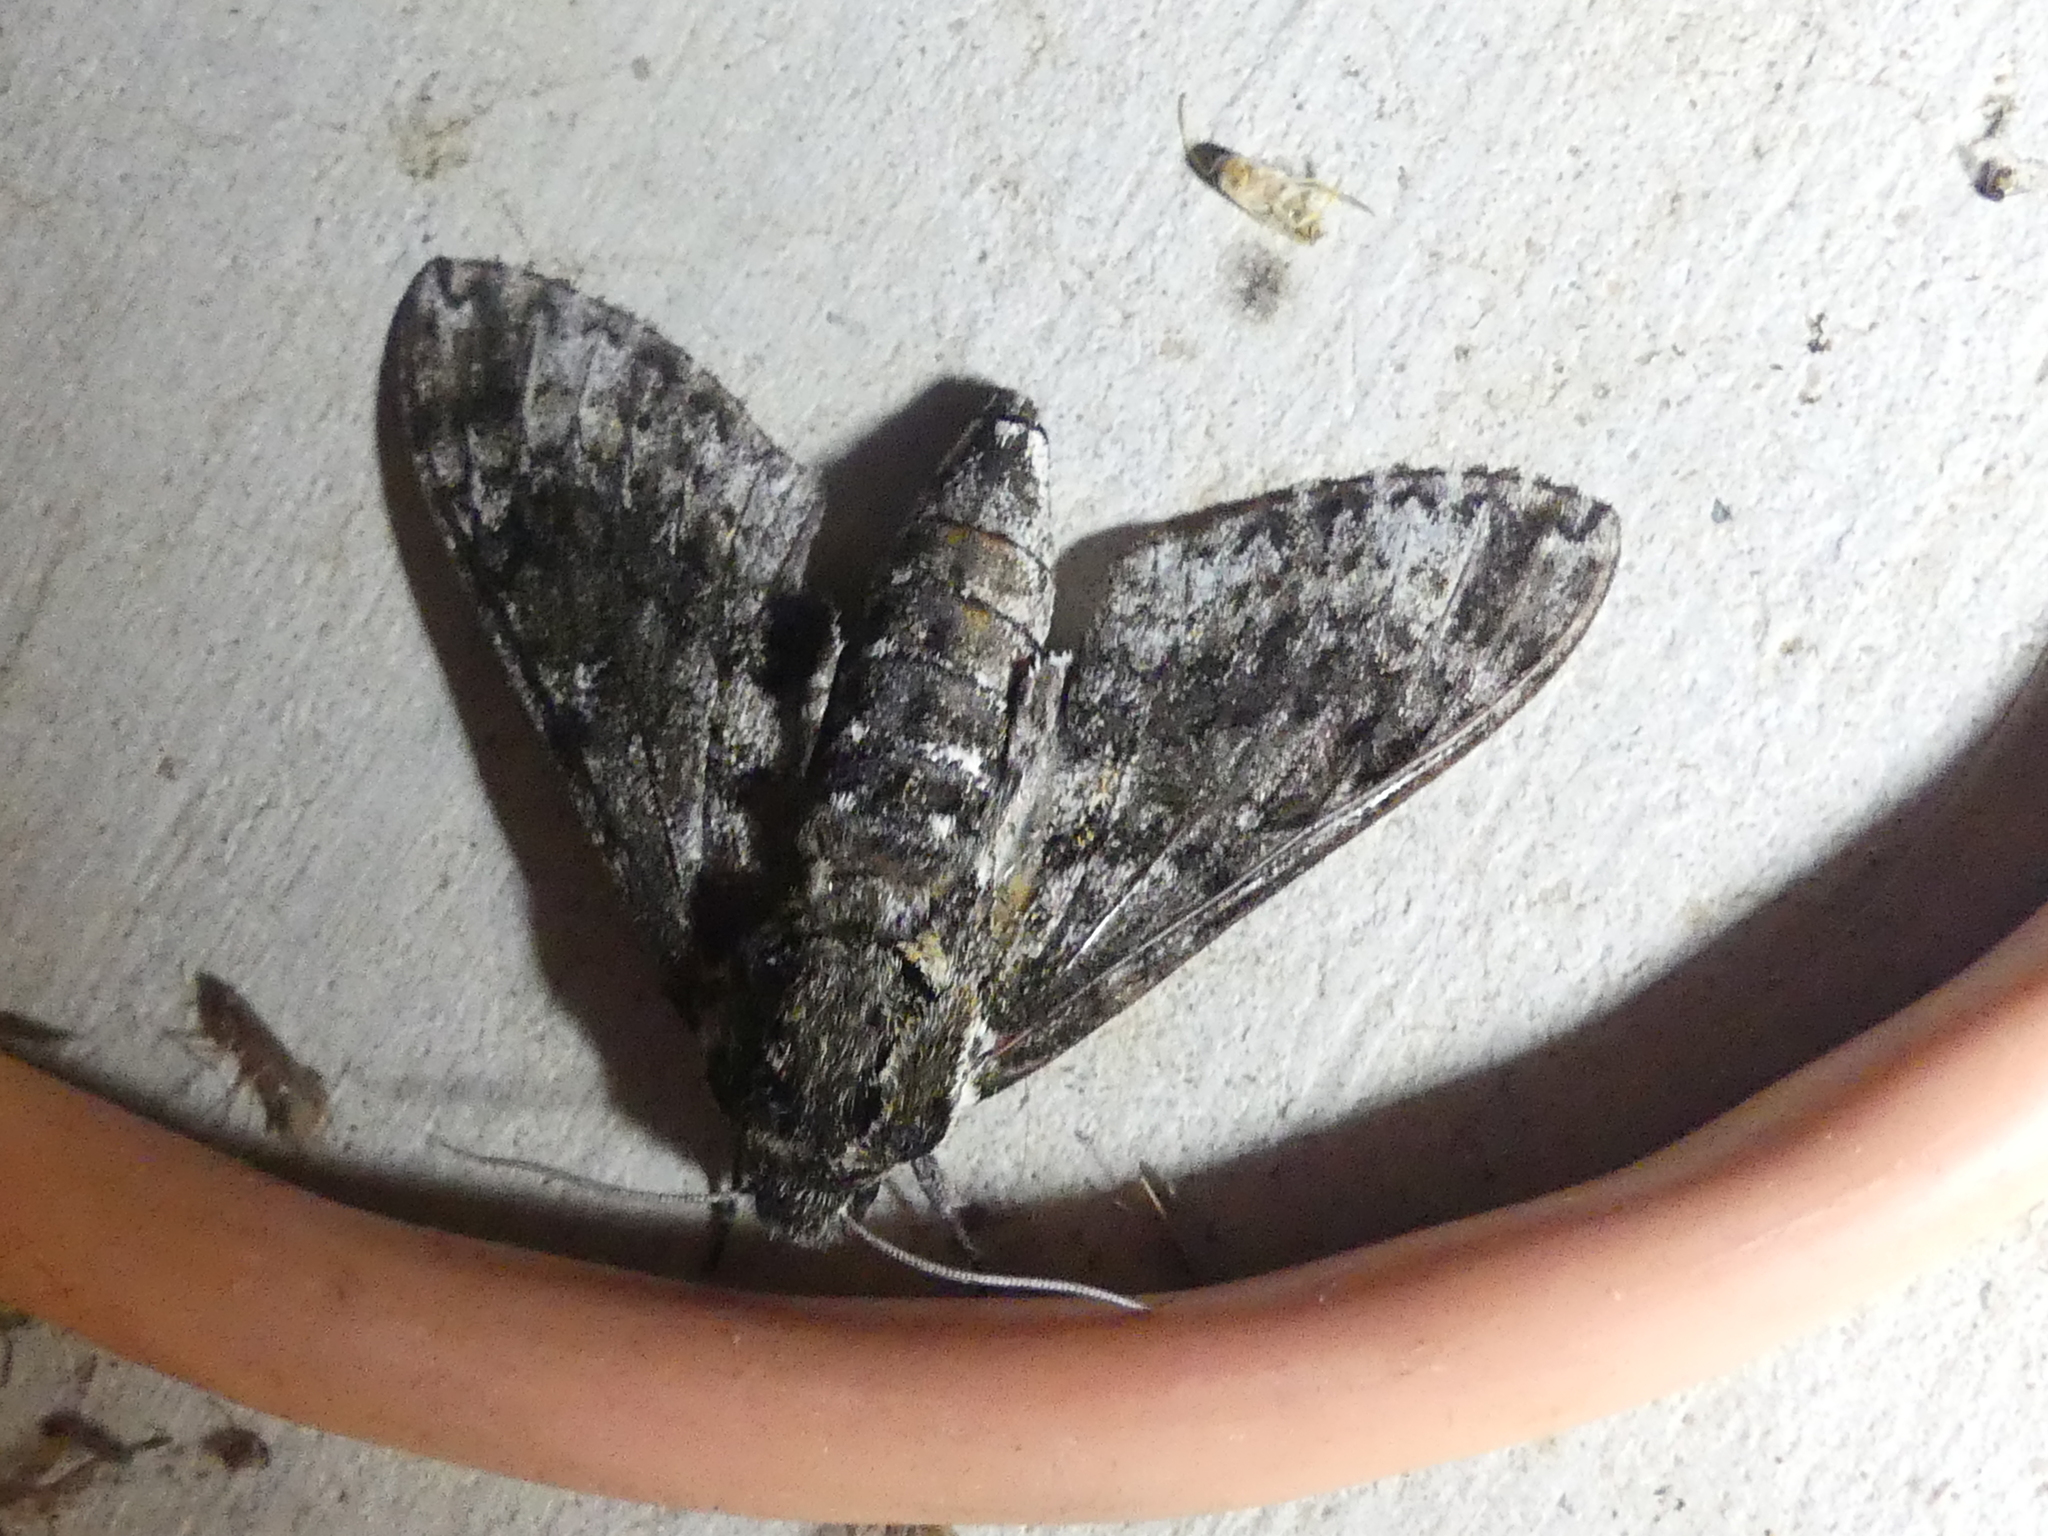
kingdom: Animalia
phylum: Arthropoda
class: Insecta
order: Lepidoptera
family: Sphingidae
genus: Dolba
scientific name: Dolba hyloeus
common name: Pawpaw sphinx
